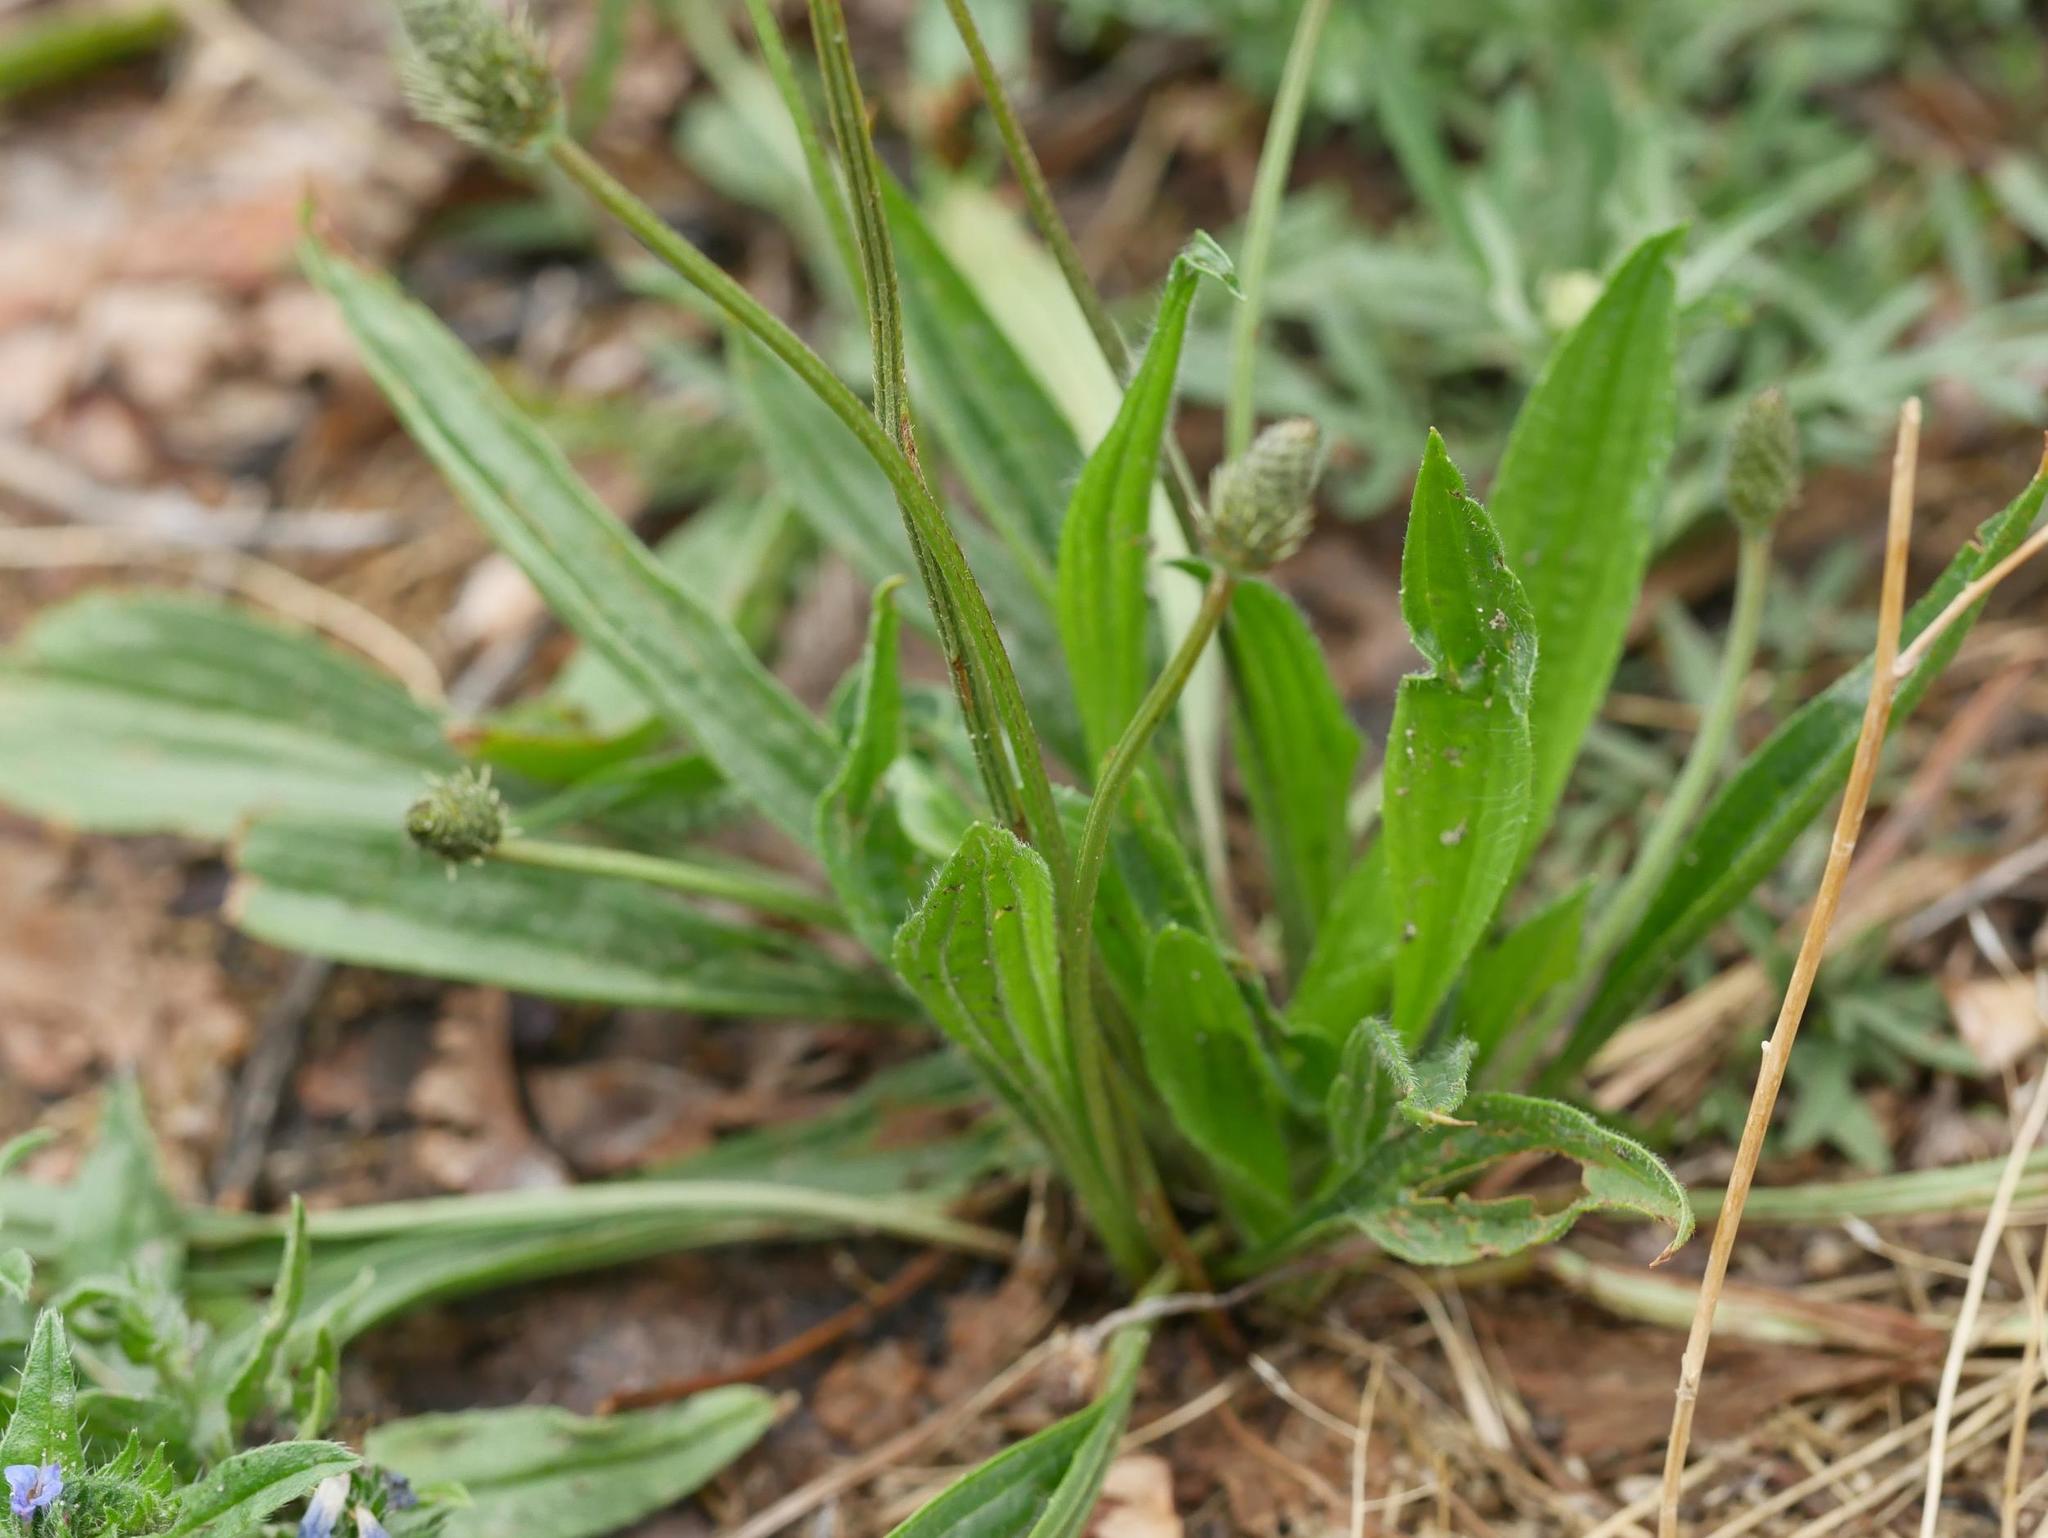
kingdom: Plantae
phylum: Tracheophyta
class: Magnoliopsida
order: Lamiales
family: Plantaginaceae
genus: Plantago
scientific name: Plantago lanceolata
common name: Ribwort plantain
